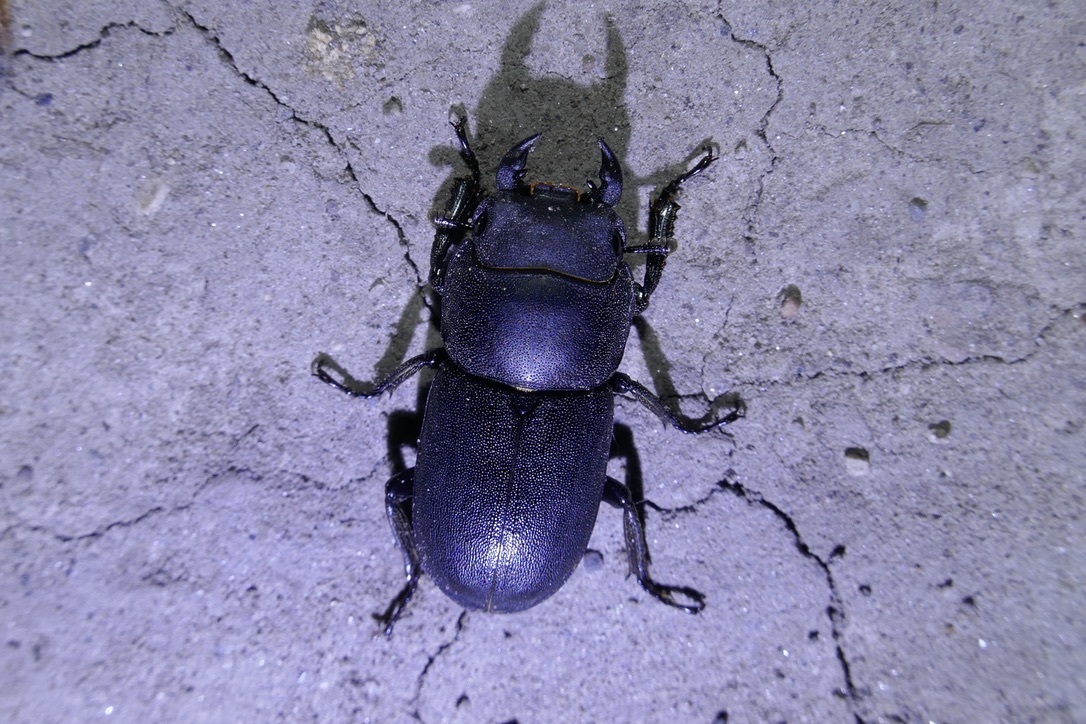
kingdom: Animalia
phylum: Arthropoda
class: Insecta
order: Coleoptera
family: Lucanidae
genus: Dorcus
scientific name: Dorcus parallelipipedus
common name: Lesser stag beetle
